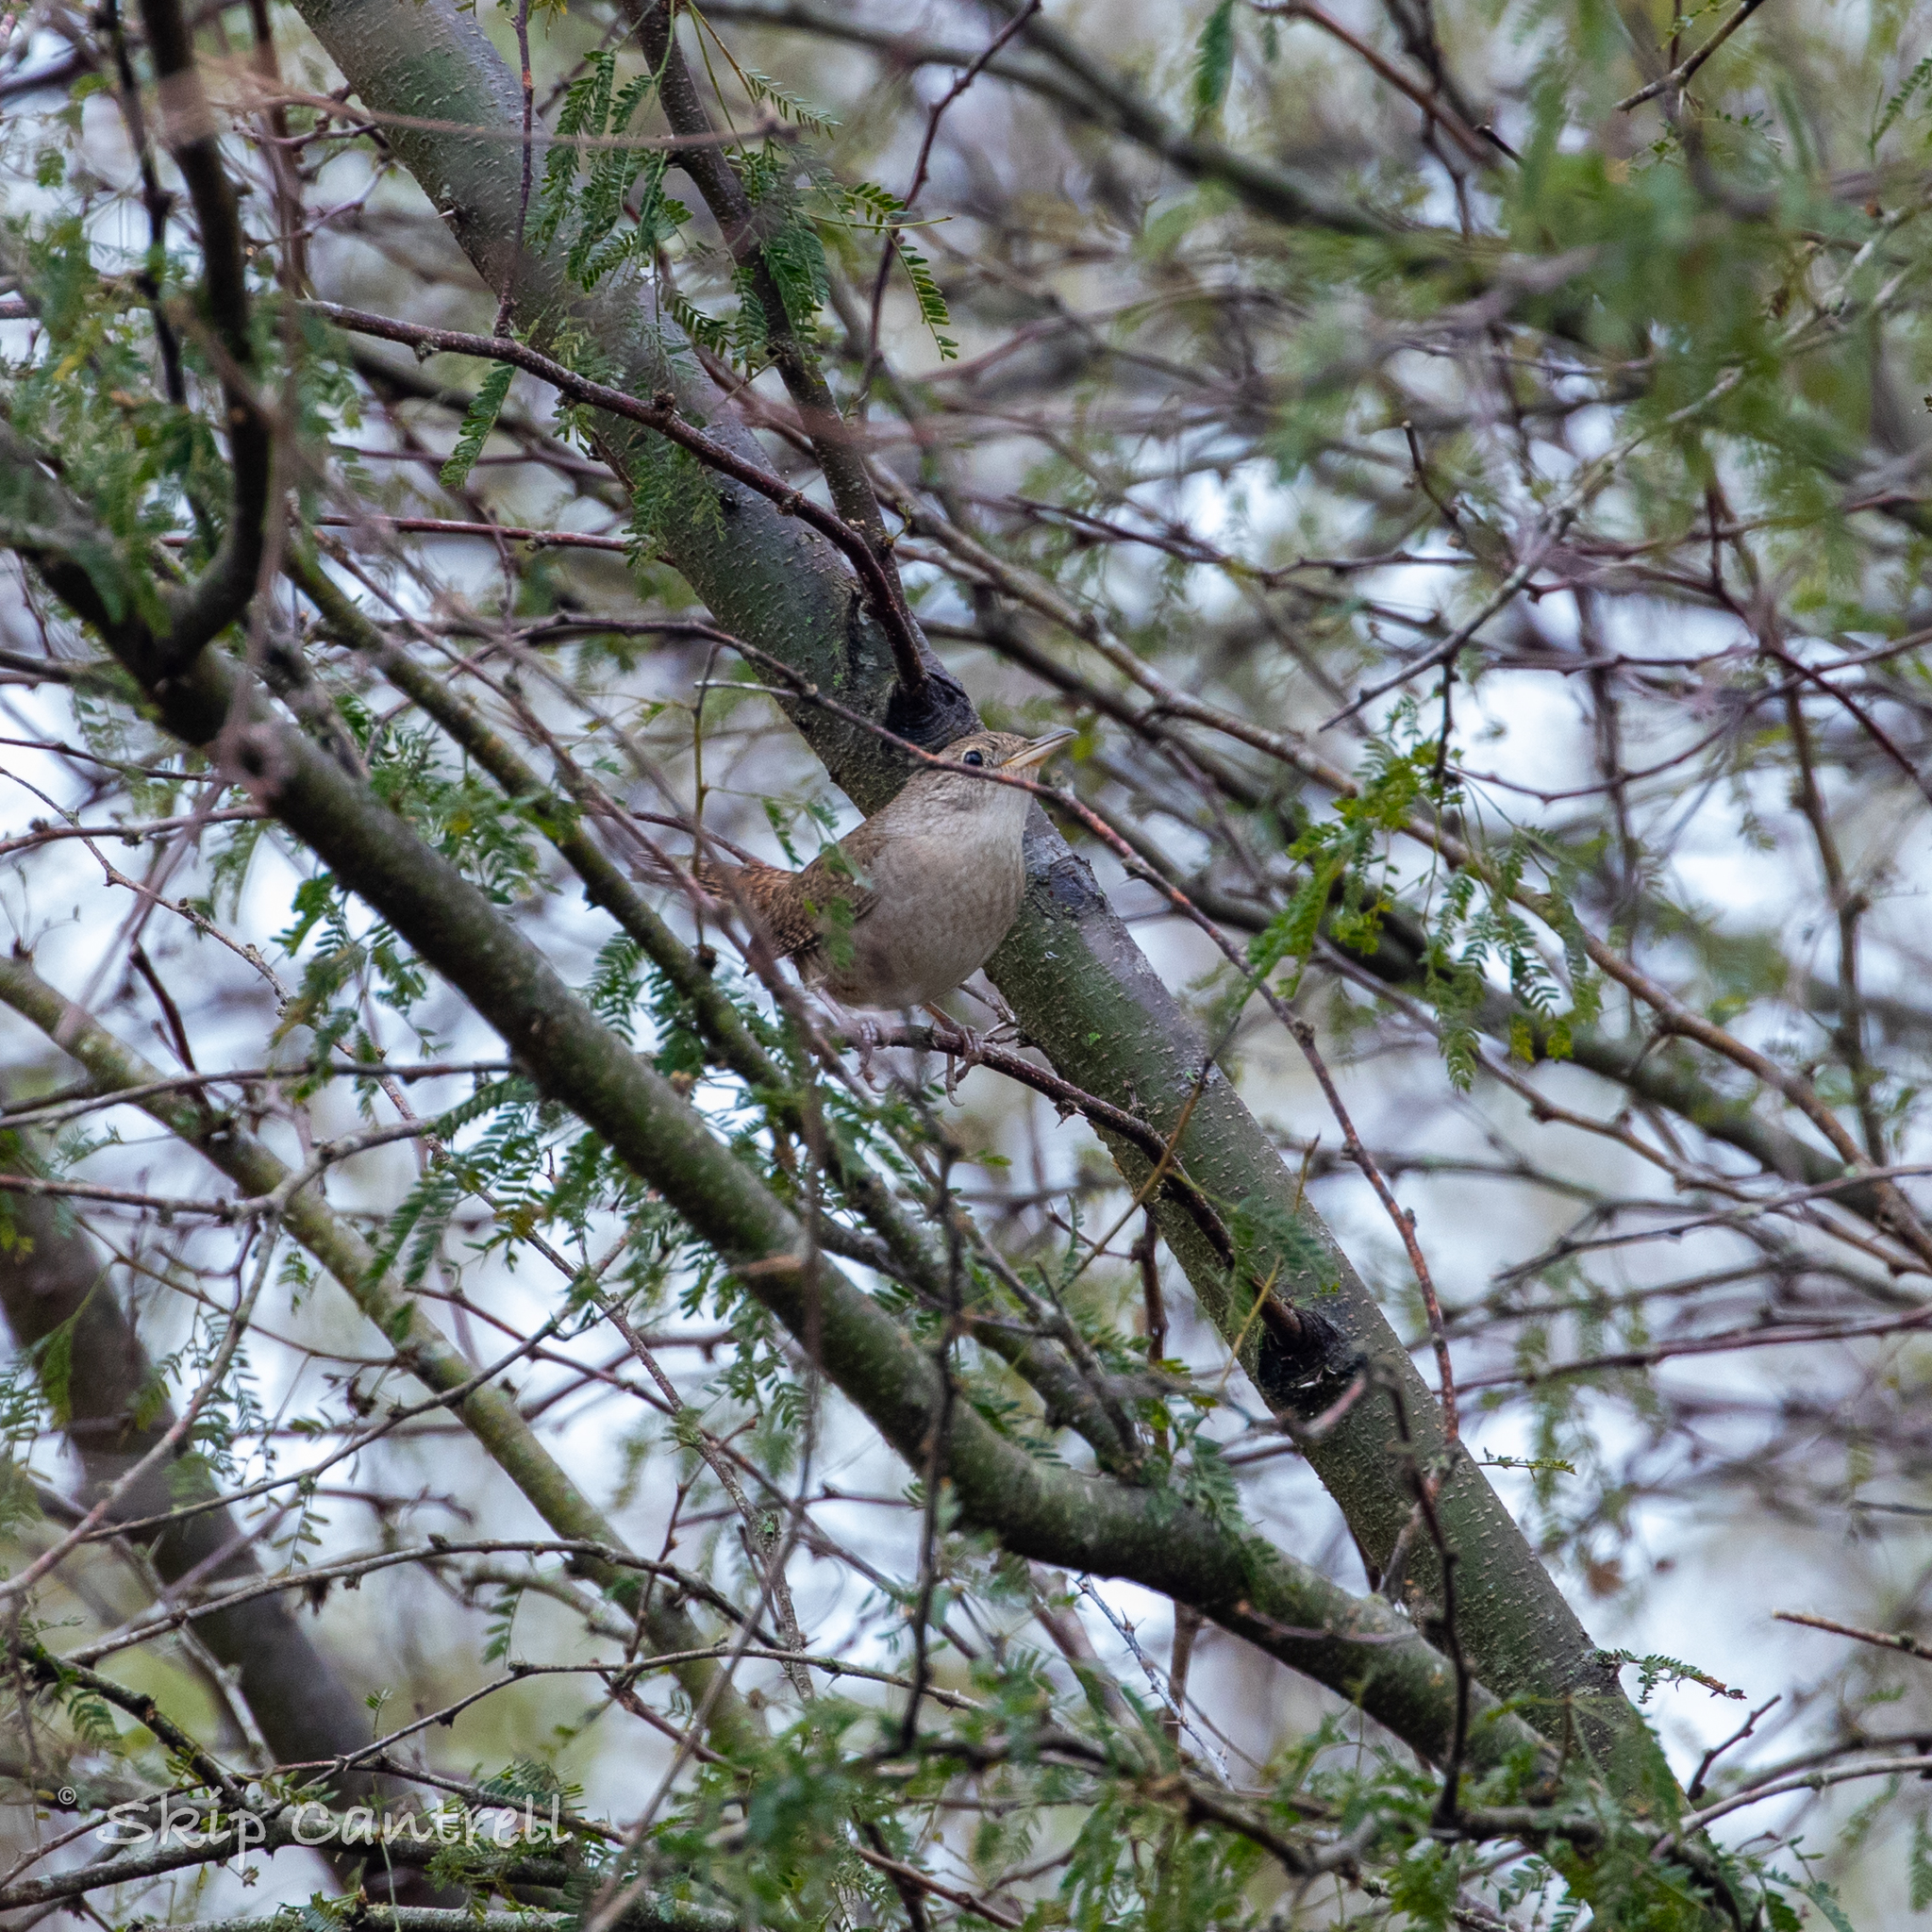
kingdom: Animalia
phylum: Chordata
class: Aves
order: Passeriformes
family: Troglodytidae
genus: Troglodytes
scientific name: Troglodytes aedon
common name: House wren
